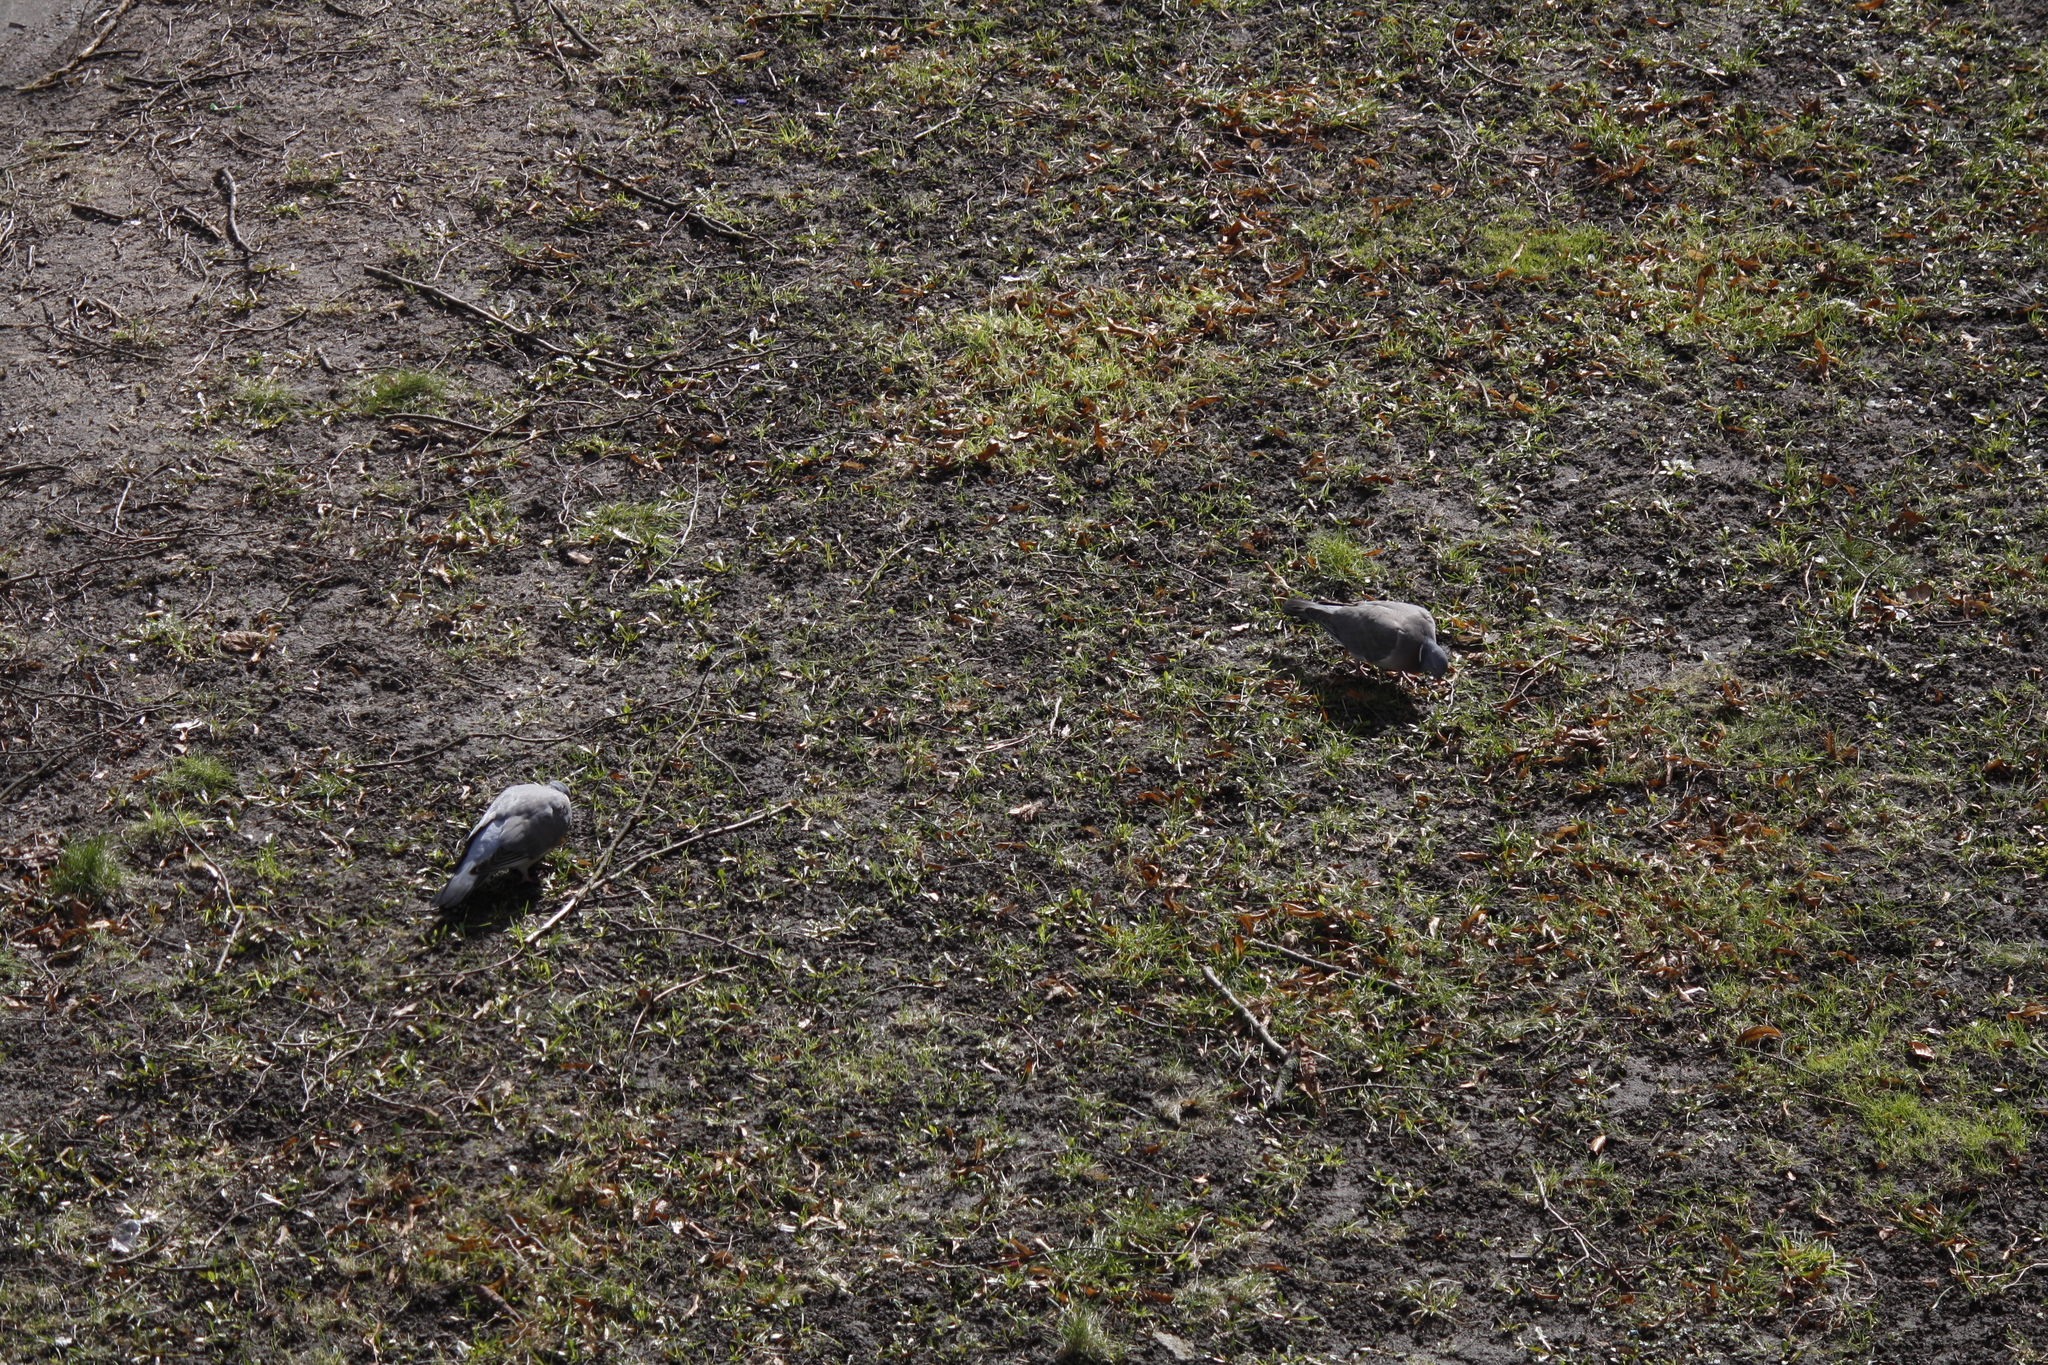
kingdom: Animalia
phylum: Chordata
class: Aves
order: Columbiformes
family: Columbidae
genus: Columba
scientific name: Columba palumbus
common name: Common wood pigeon
